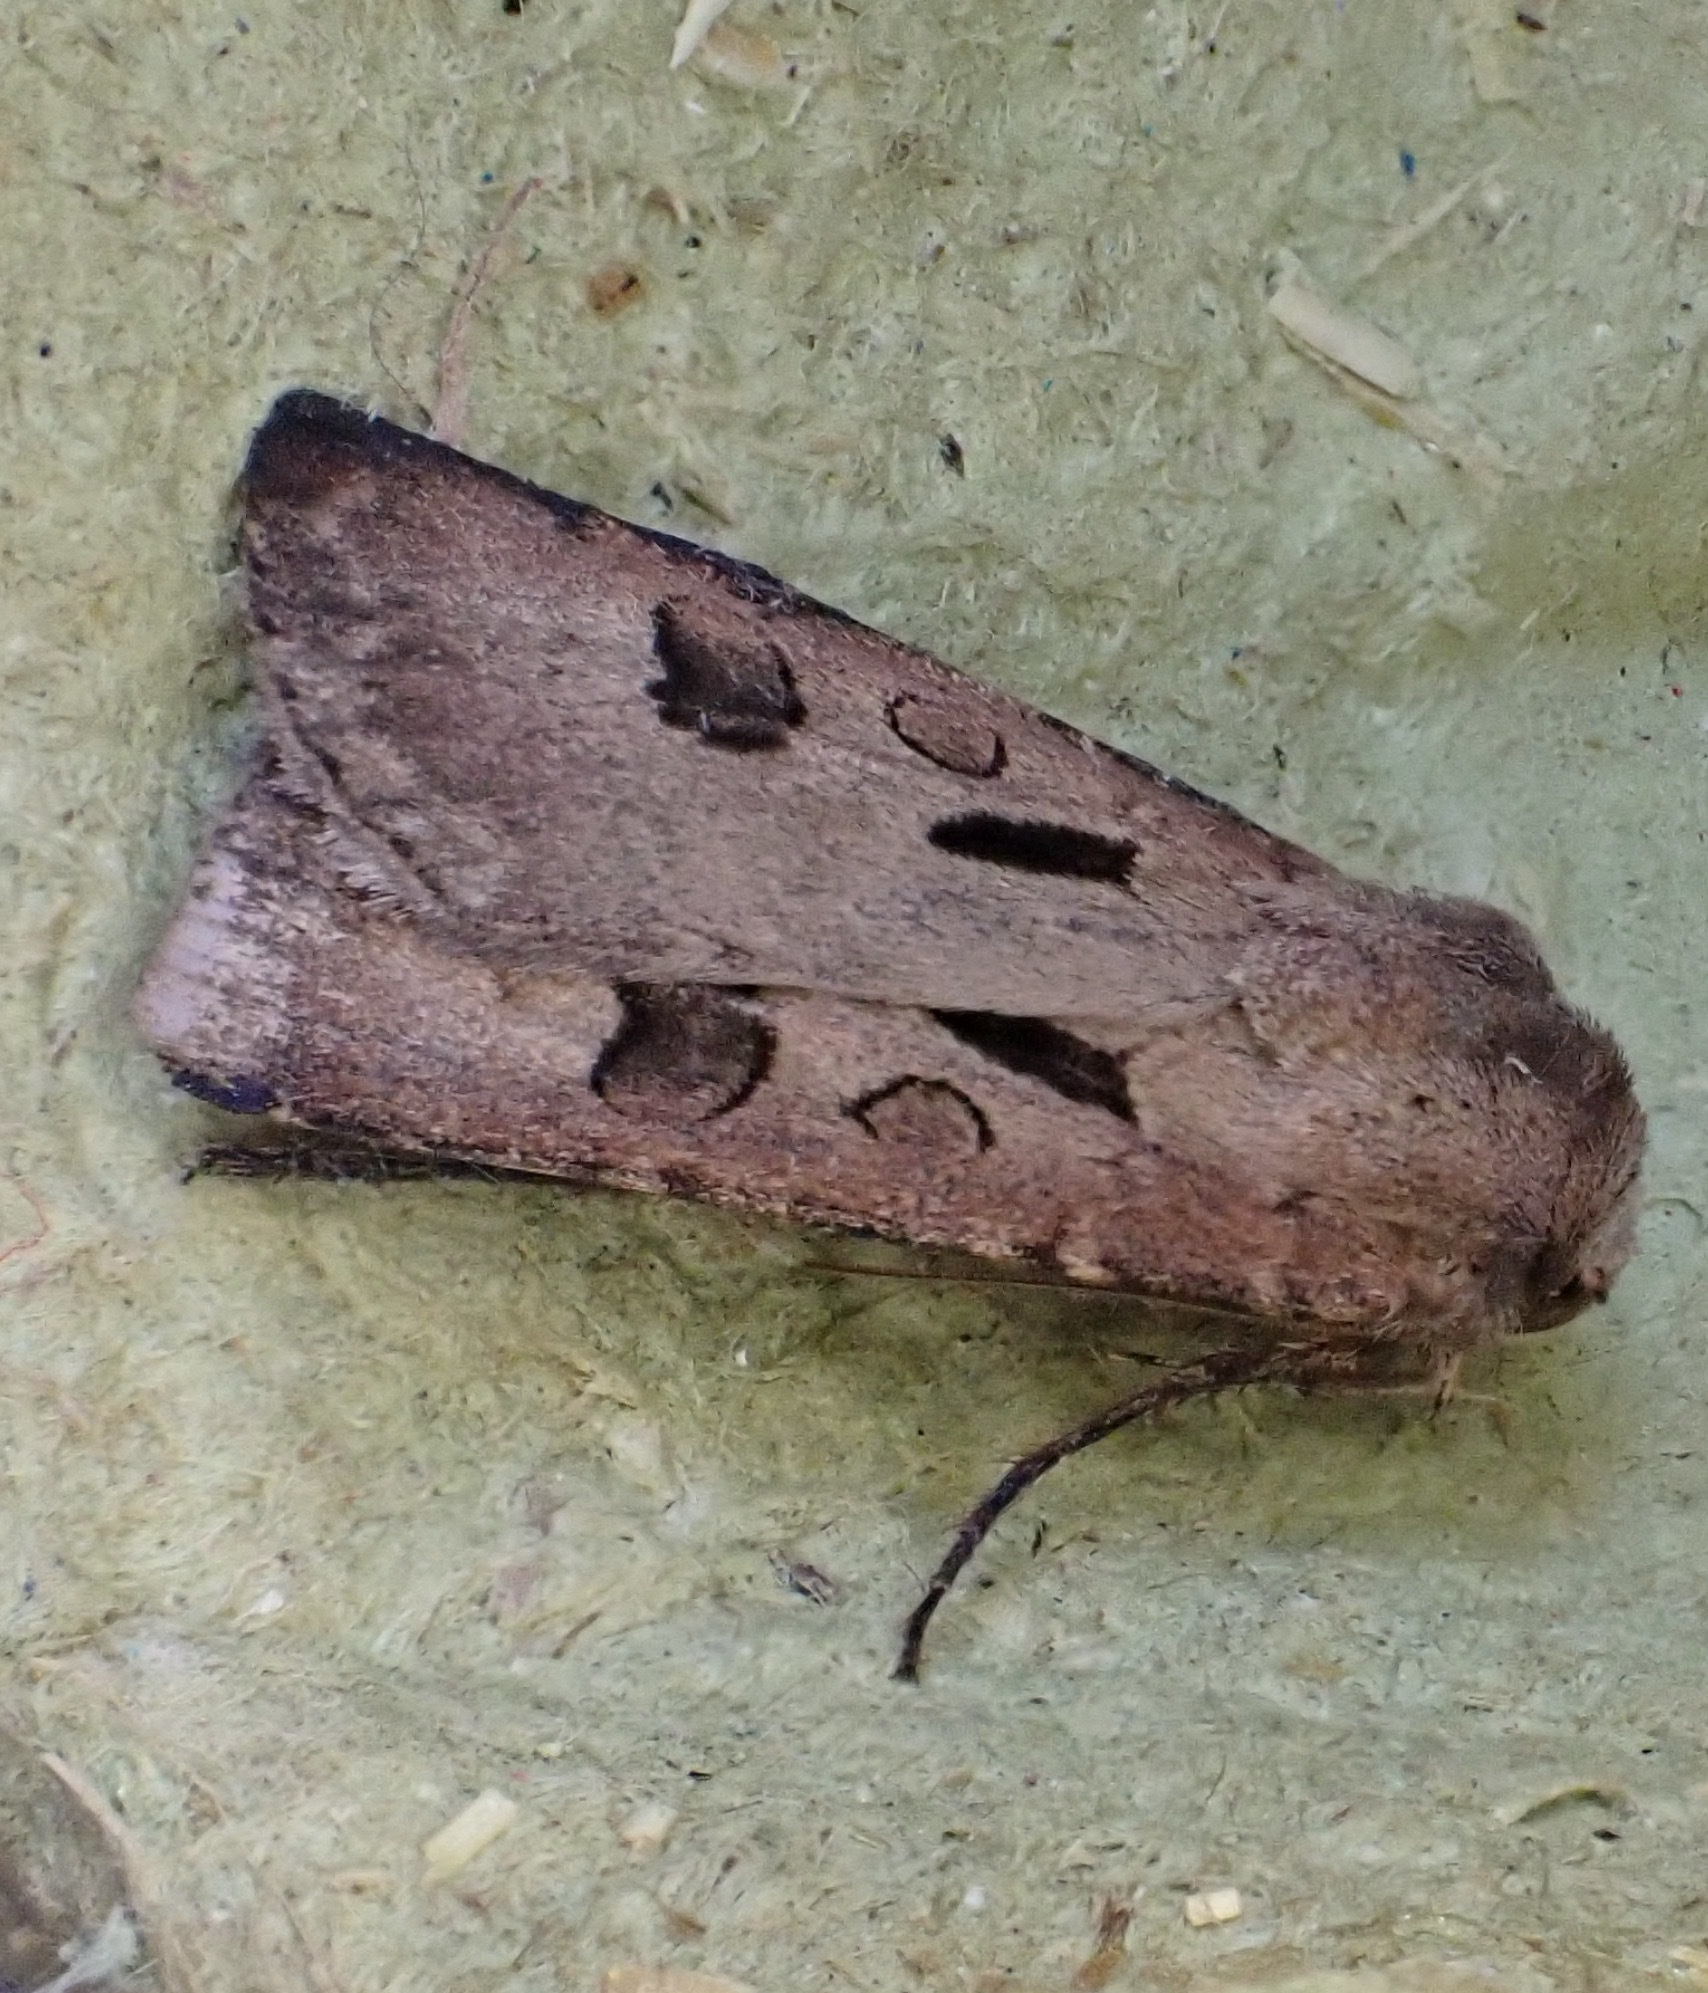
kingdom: Animalia
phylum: Arthropoda
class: Insecta
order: Lepidoptera
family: Noctuidae
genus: Agrotis
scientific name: Agrotis exclamationis
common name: Heart and dart
